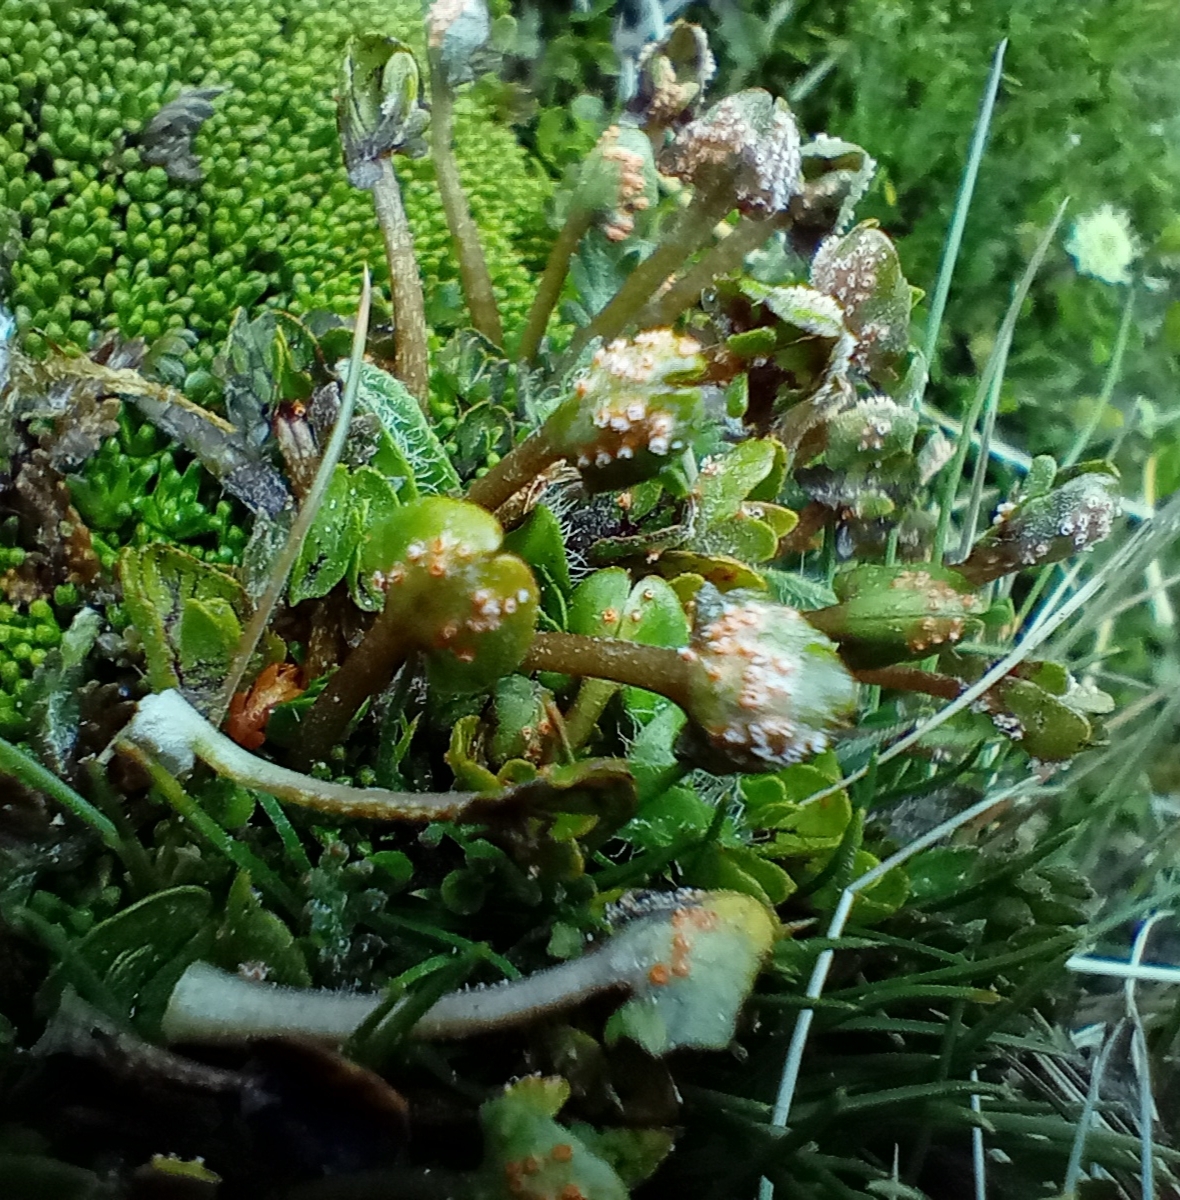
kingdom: Fungi
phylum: Basidiomycota
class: Pucciniomycetes
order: Pucciniales
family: Pucciniaceae
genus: Aecidium
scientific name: Aecidium westlandicum
